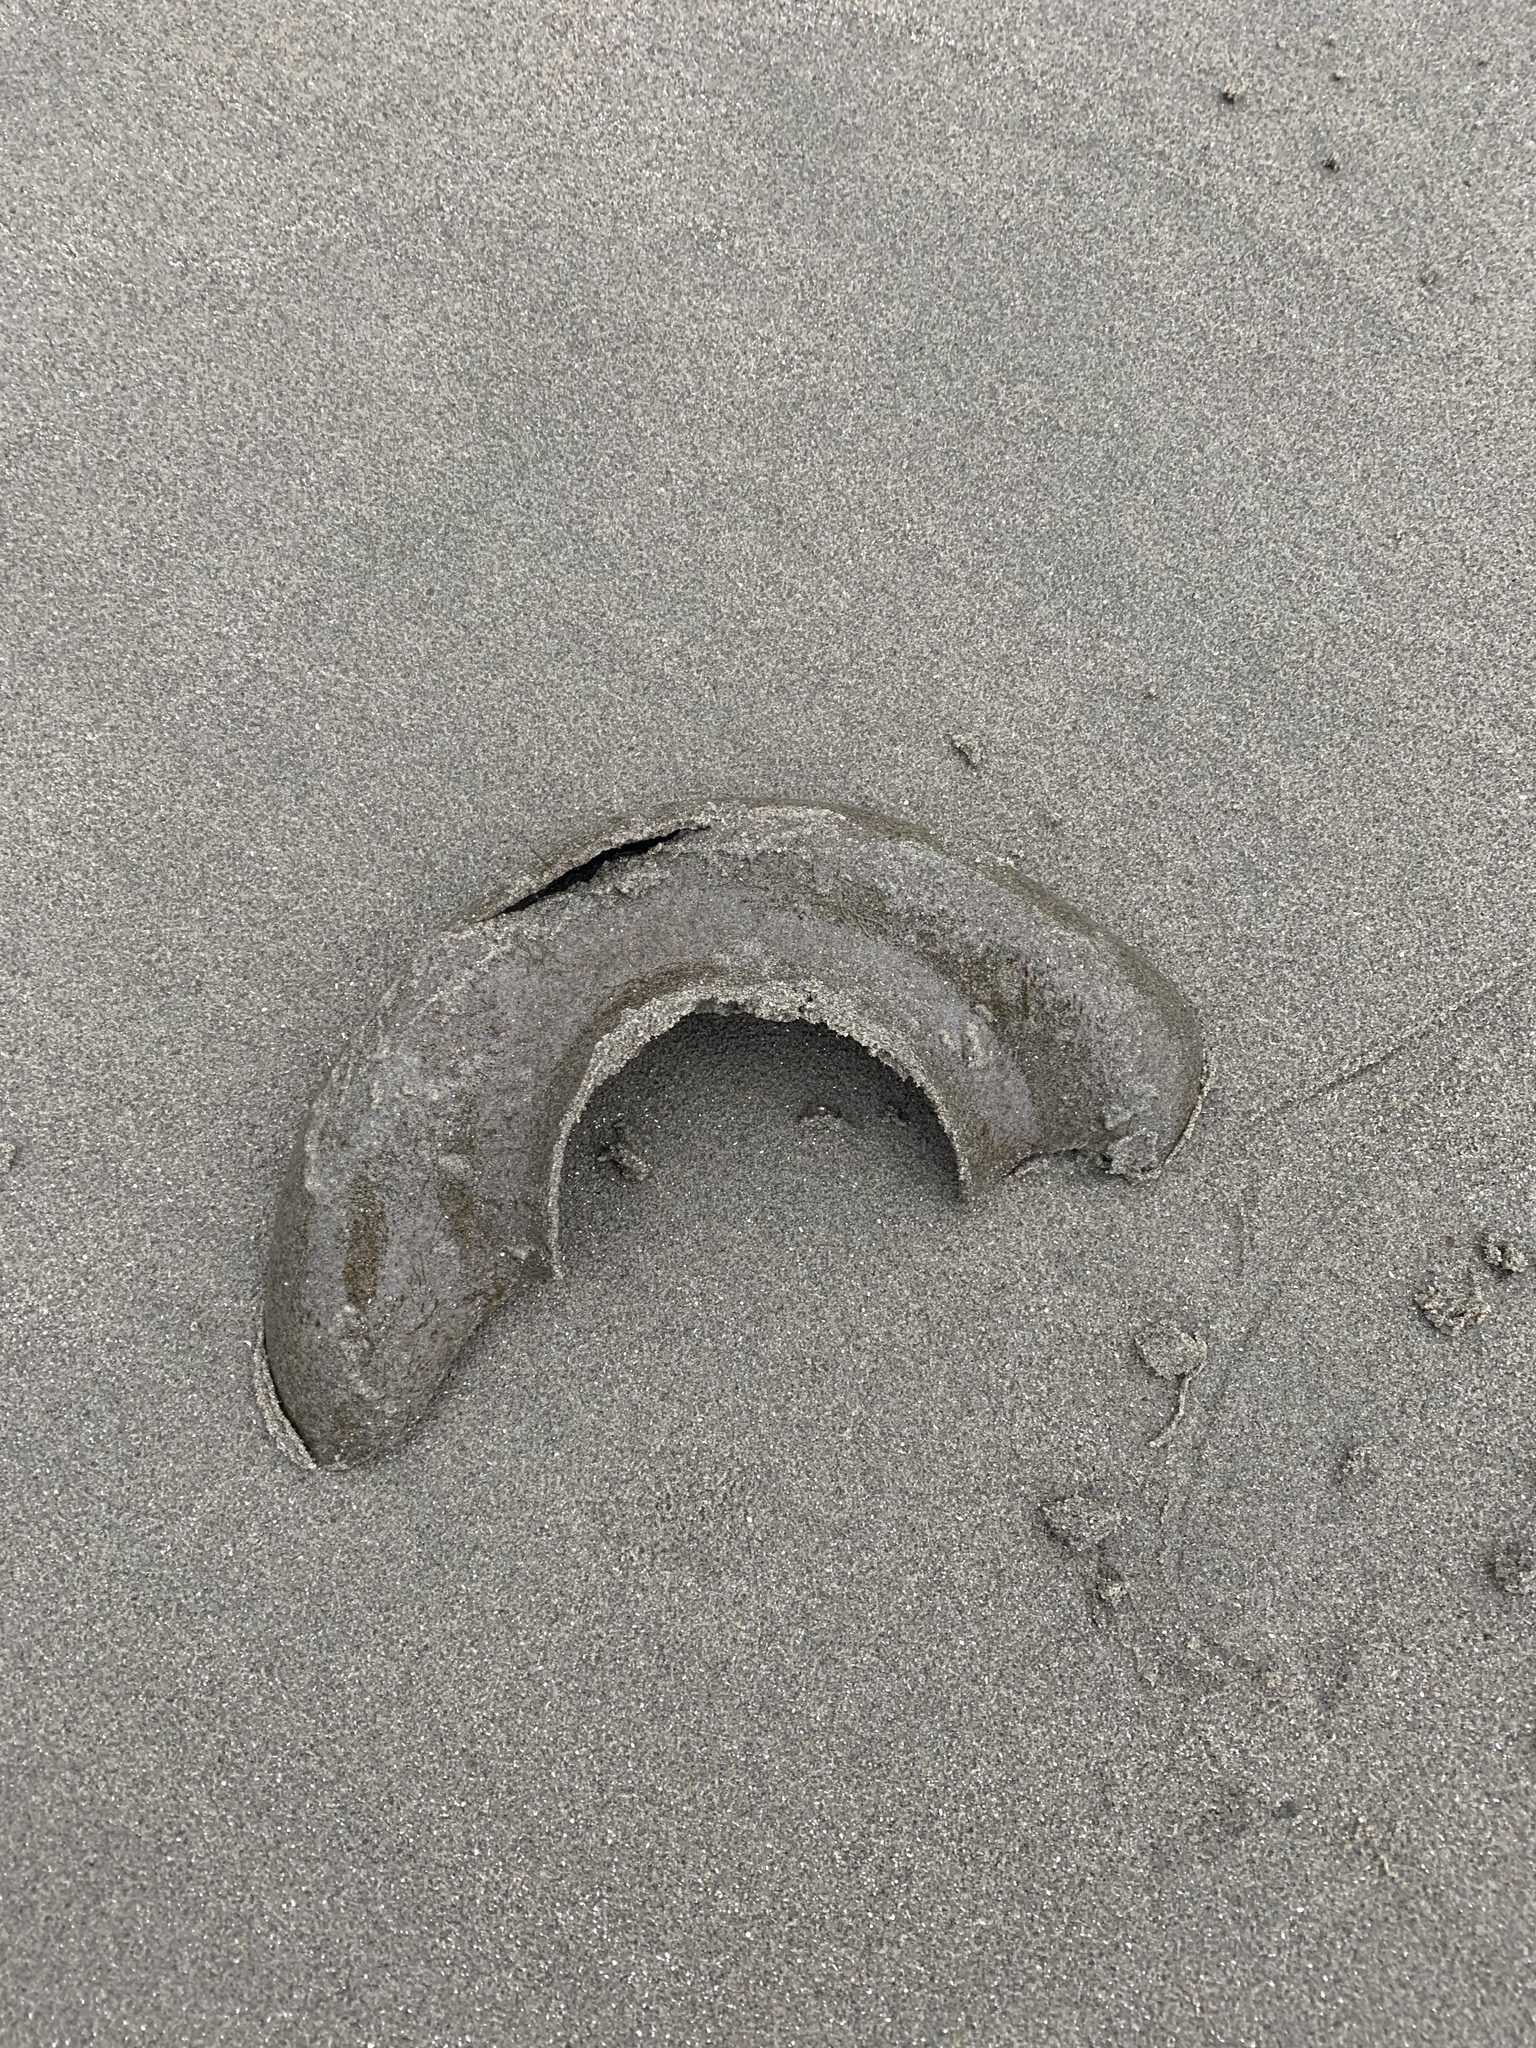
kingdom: Animalia
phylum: Mollusca
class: Gastropoda
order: Littorinimorpha
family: Naticidae
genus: Neverita
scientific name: Neverita lewisii
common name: Lewis' moonsnail
